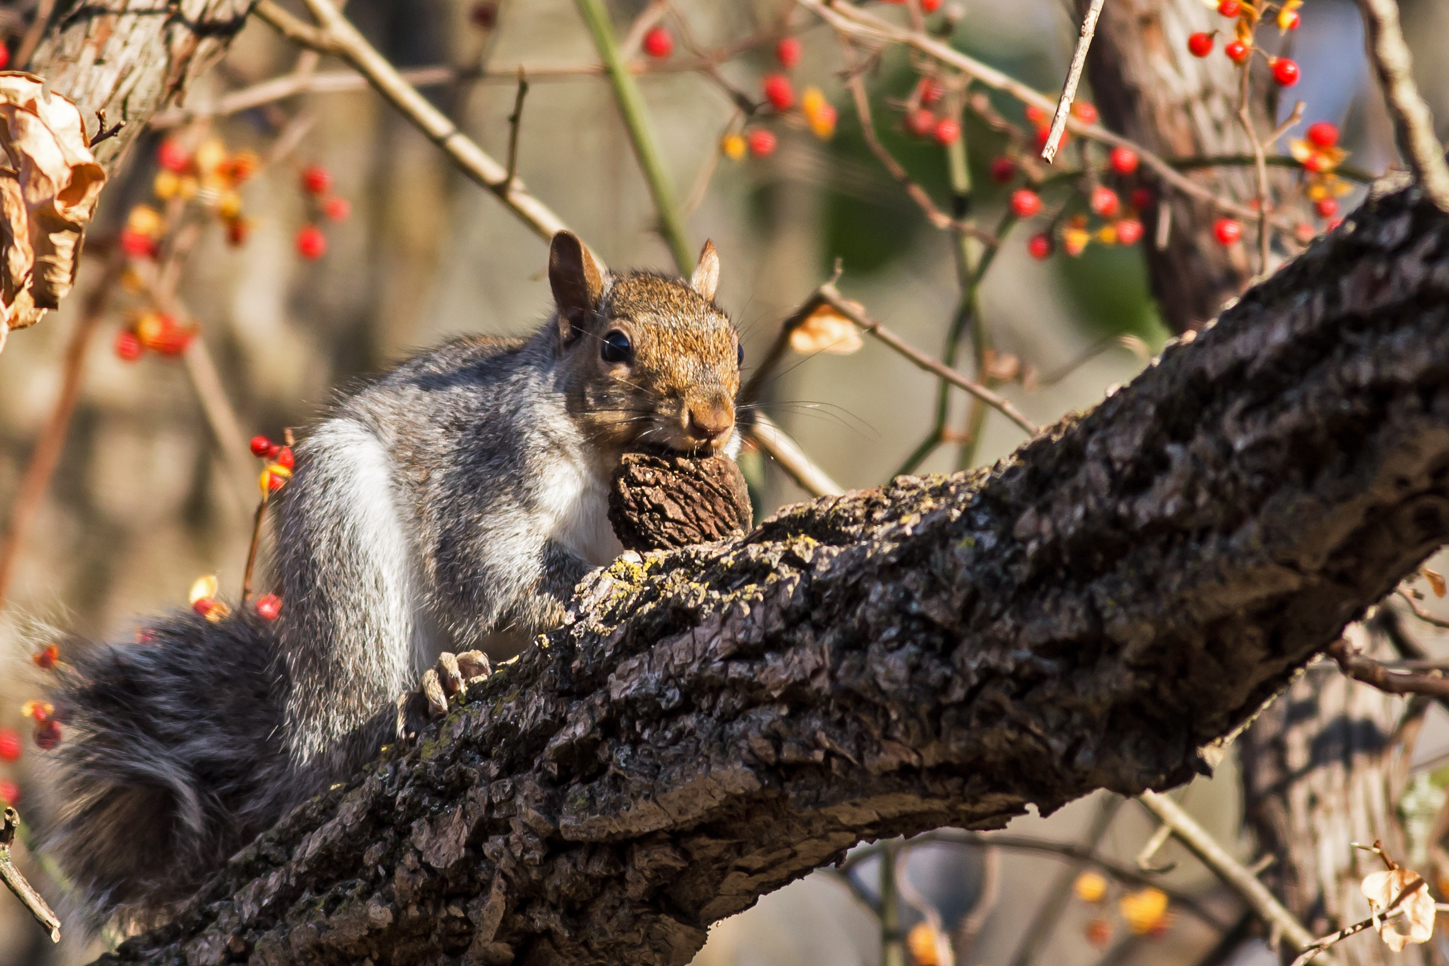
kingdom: Animalia
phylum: Chordata
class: Mammalia
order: Rodentia
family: Sciuridae
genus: Sciurus
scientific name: Sciurus carolinensis
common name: Eastern gray squirrel
